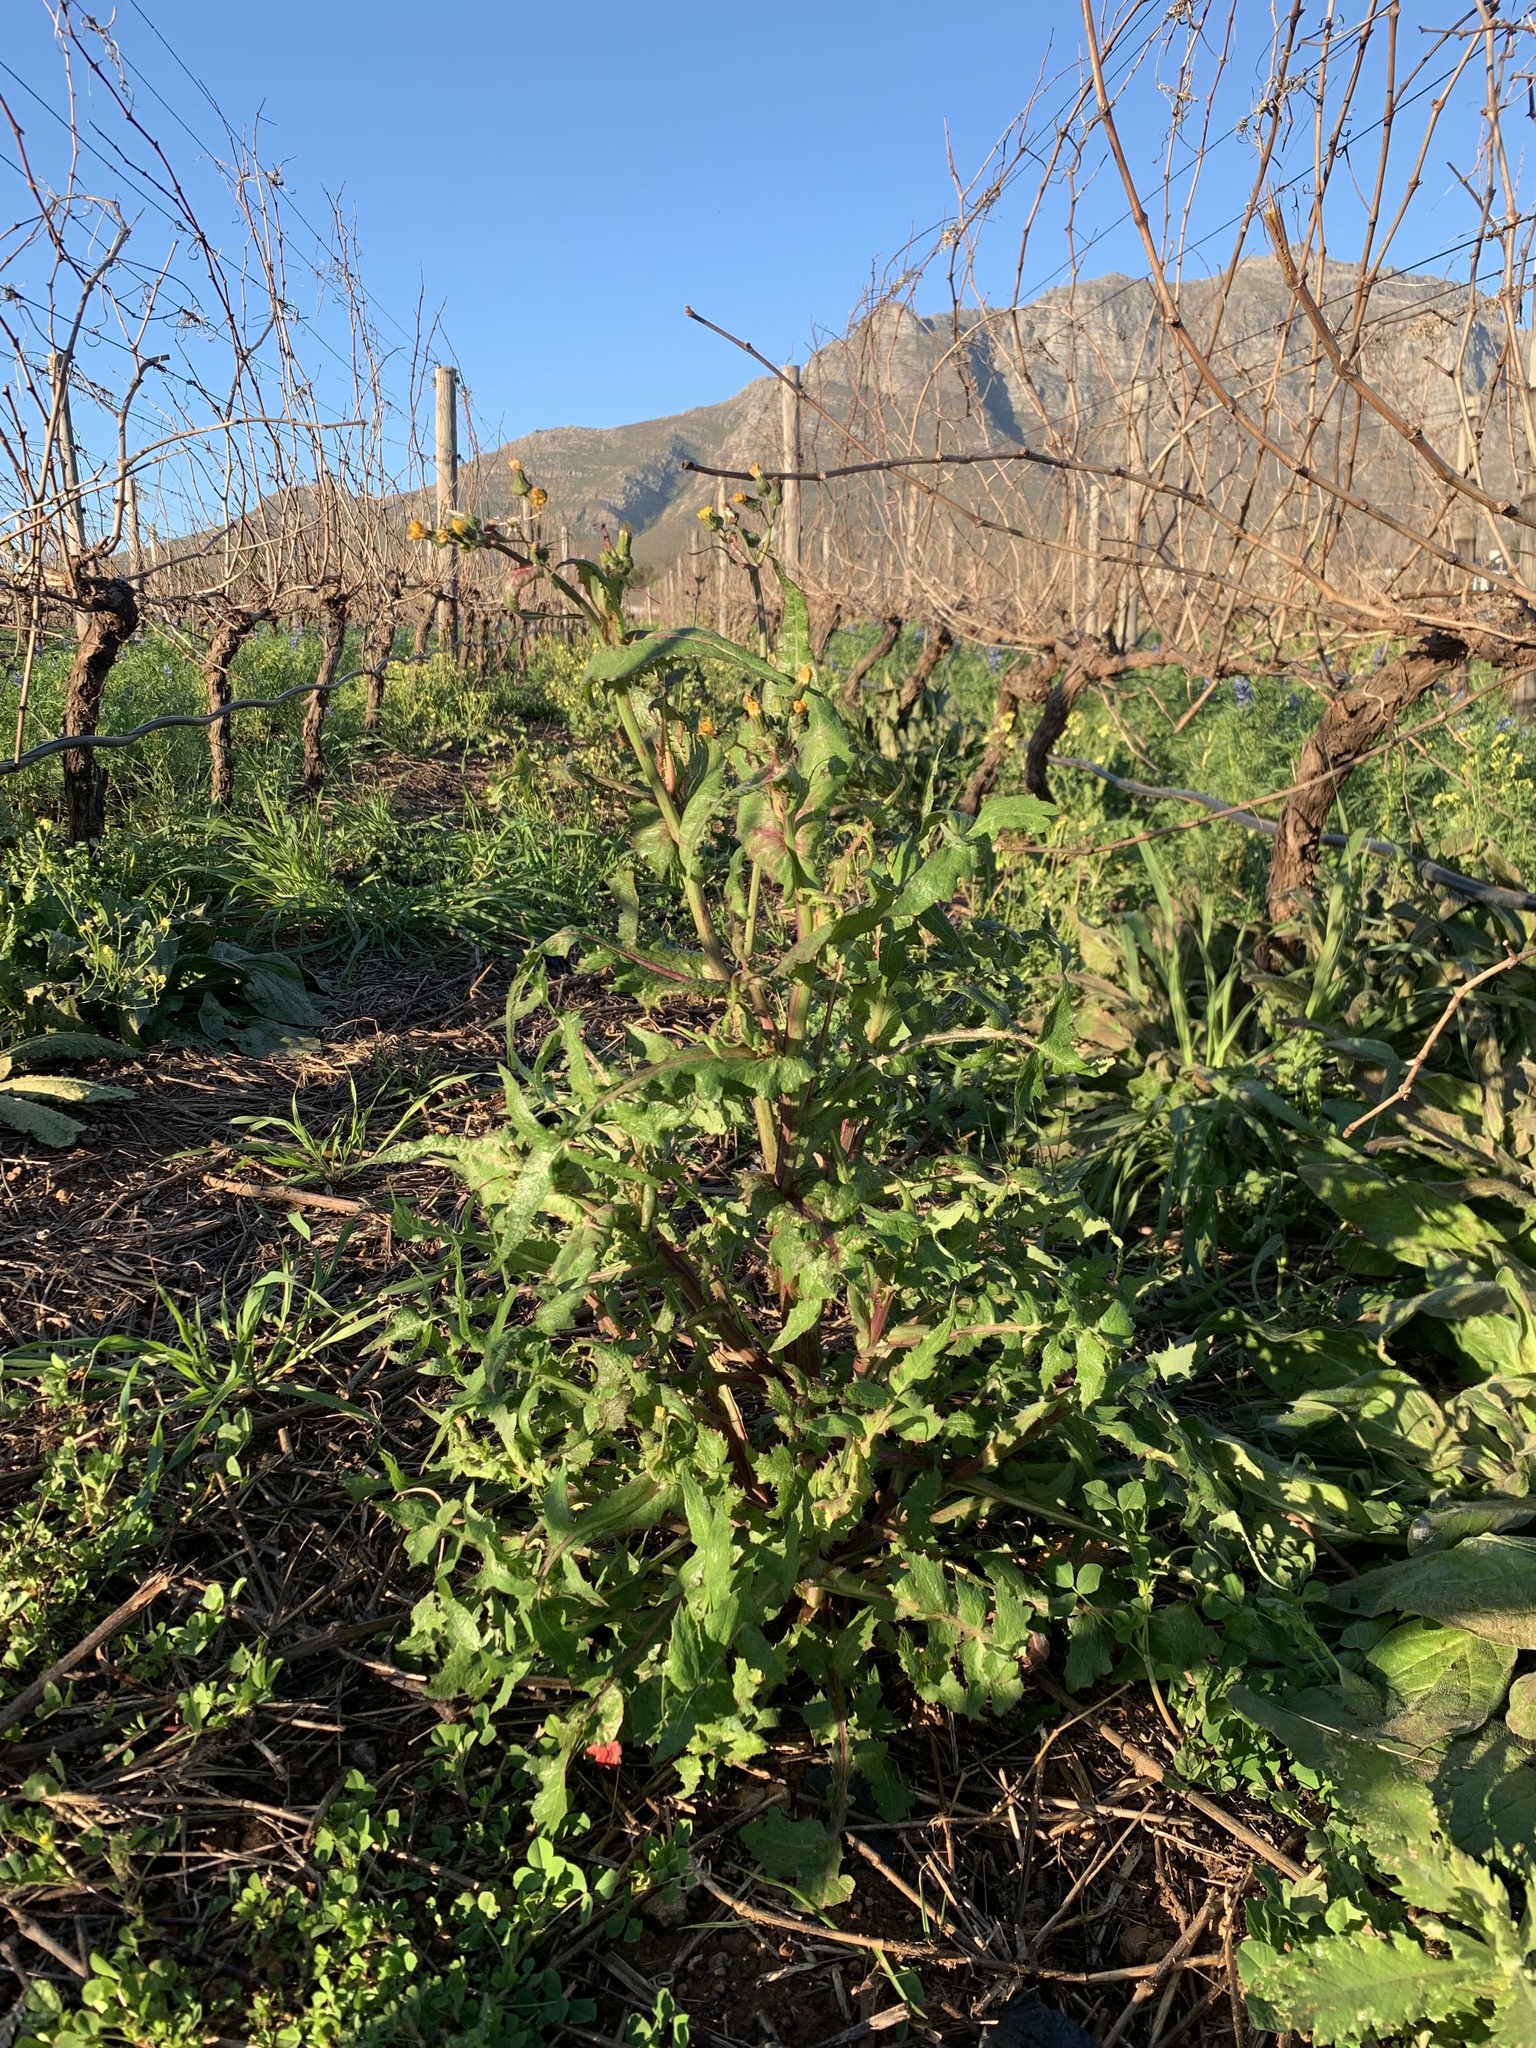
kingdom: Plantae
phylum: Tracheophyta
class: Magnoliopsida
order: Asterales
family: Asteraceae
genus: Sonchus
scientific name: Sonchus oleraceus
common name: Common sowthistle
